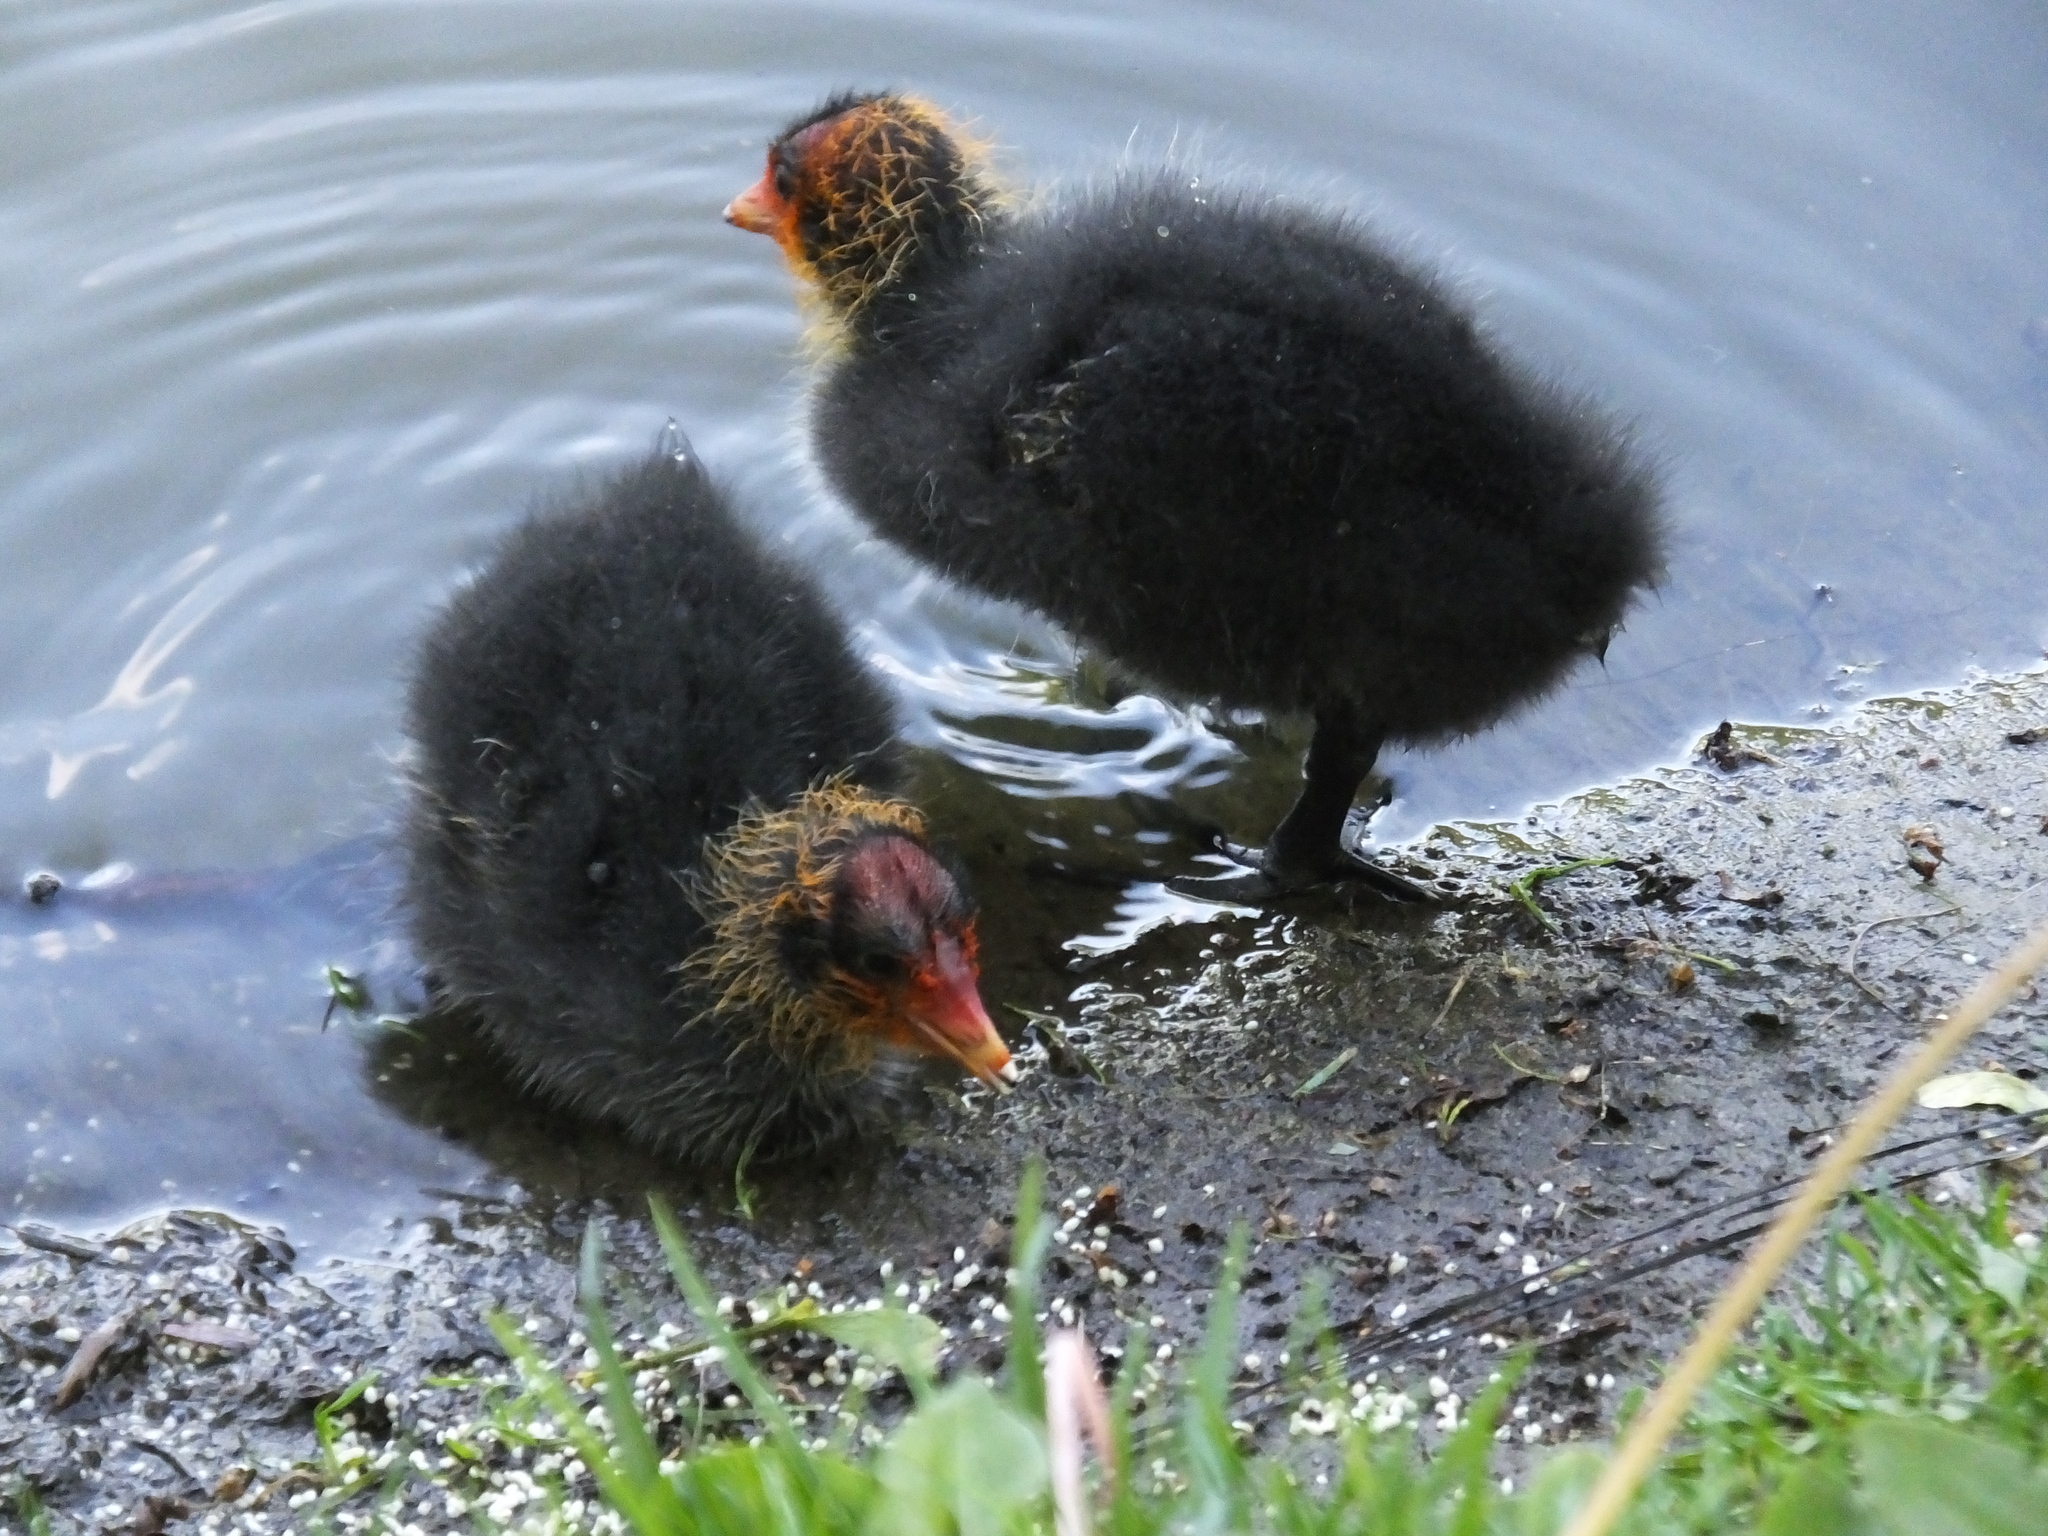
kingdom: Animalia
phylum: Chordata
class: Aves
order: Gruiformes
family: Rallidae
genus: Fulica
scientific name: Fulica atra
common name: Eurasian coot
